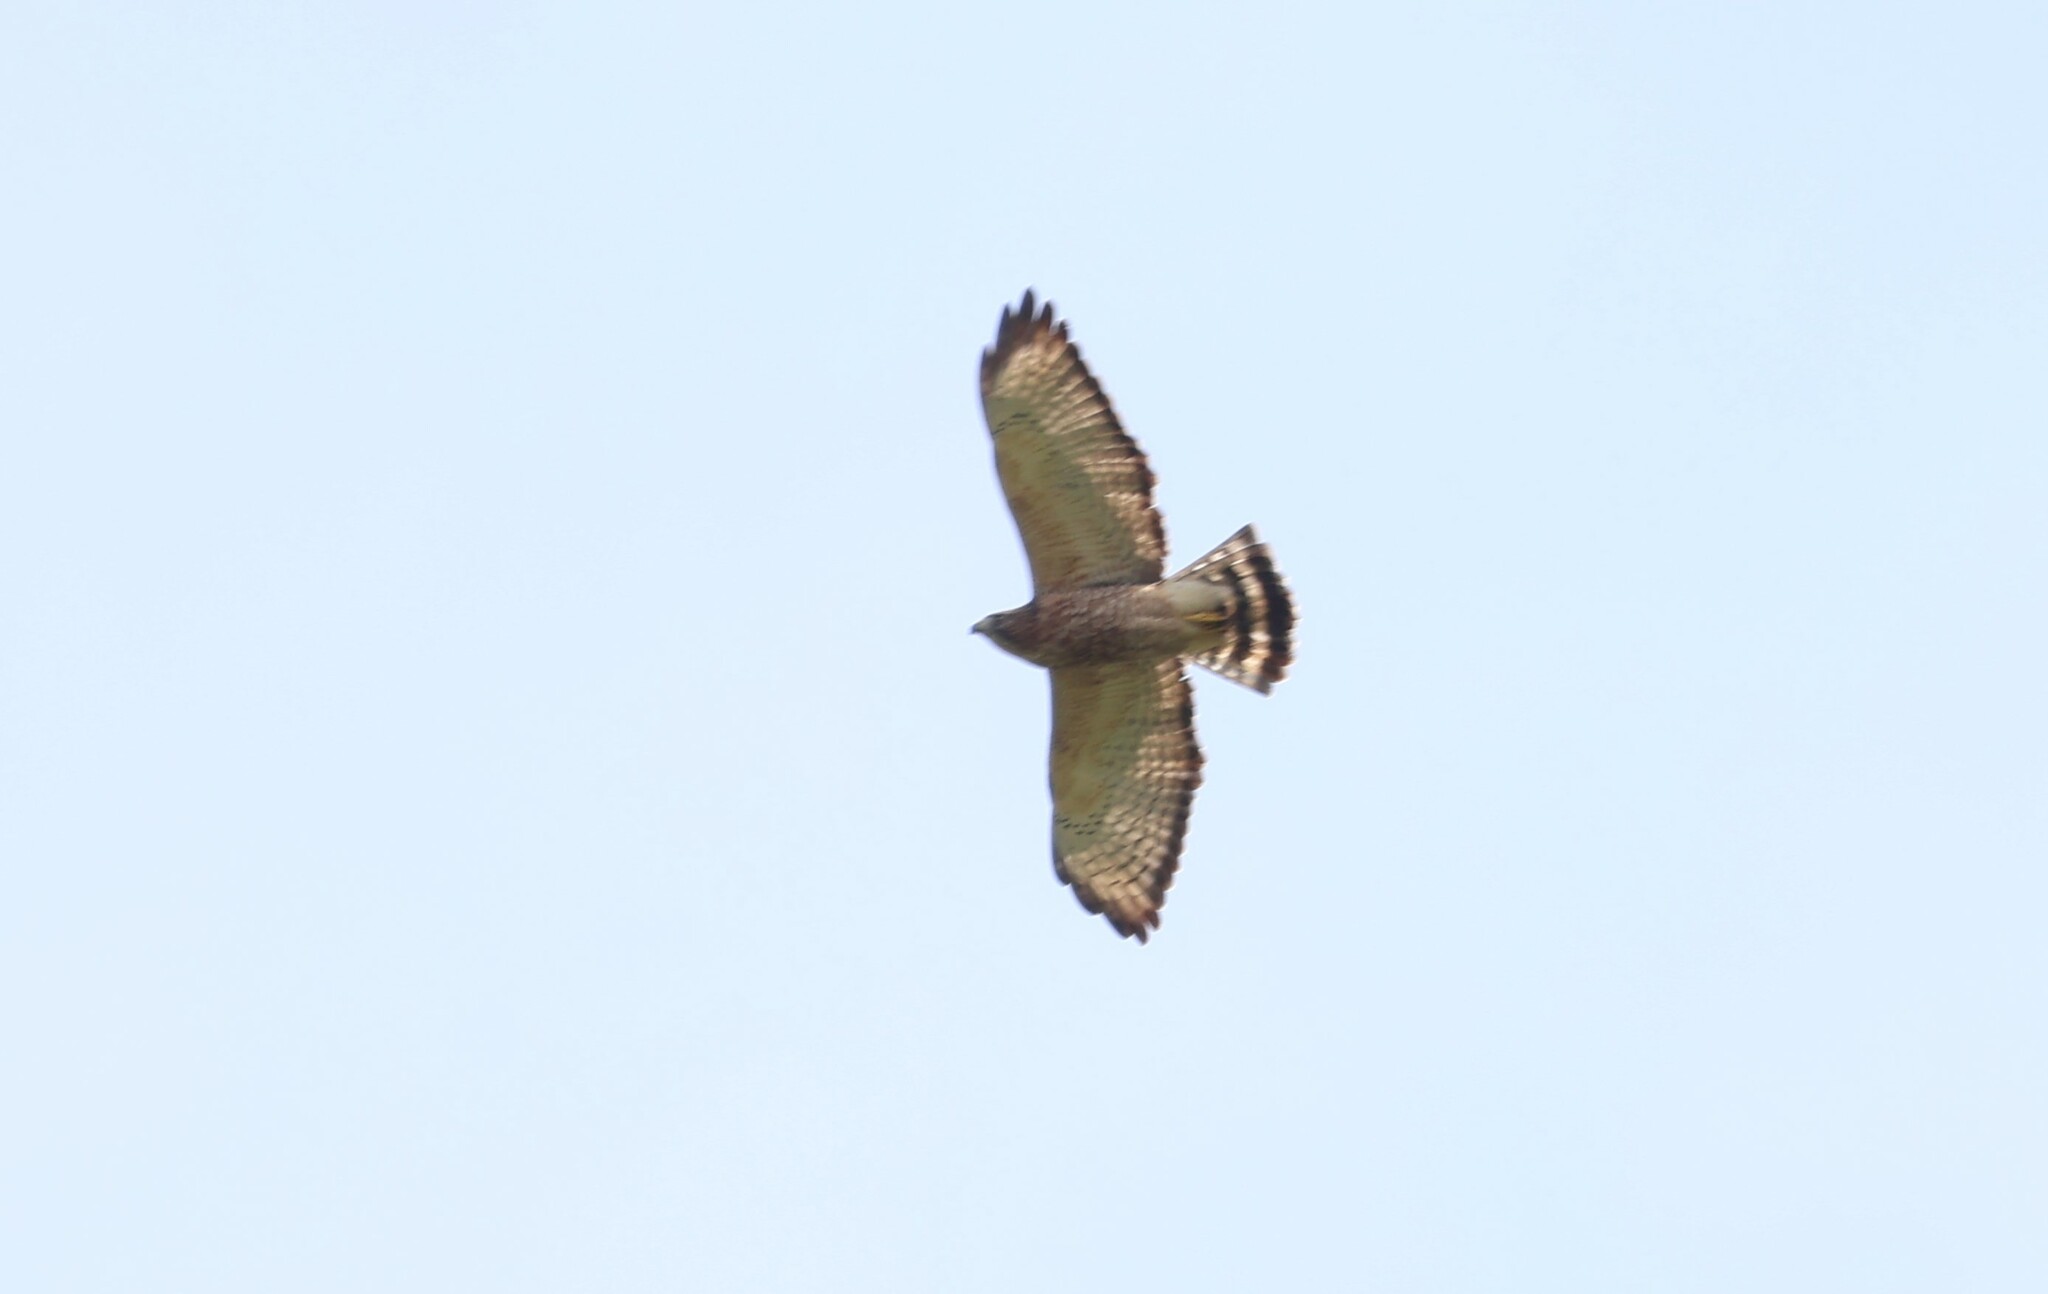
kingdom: Animalia
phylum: Chordata
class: Aves
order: Accipitriformes
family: Accipitridae
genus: Buteo
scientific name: Buteo platypterus
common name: Broad-winged hawk
